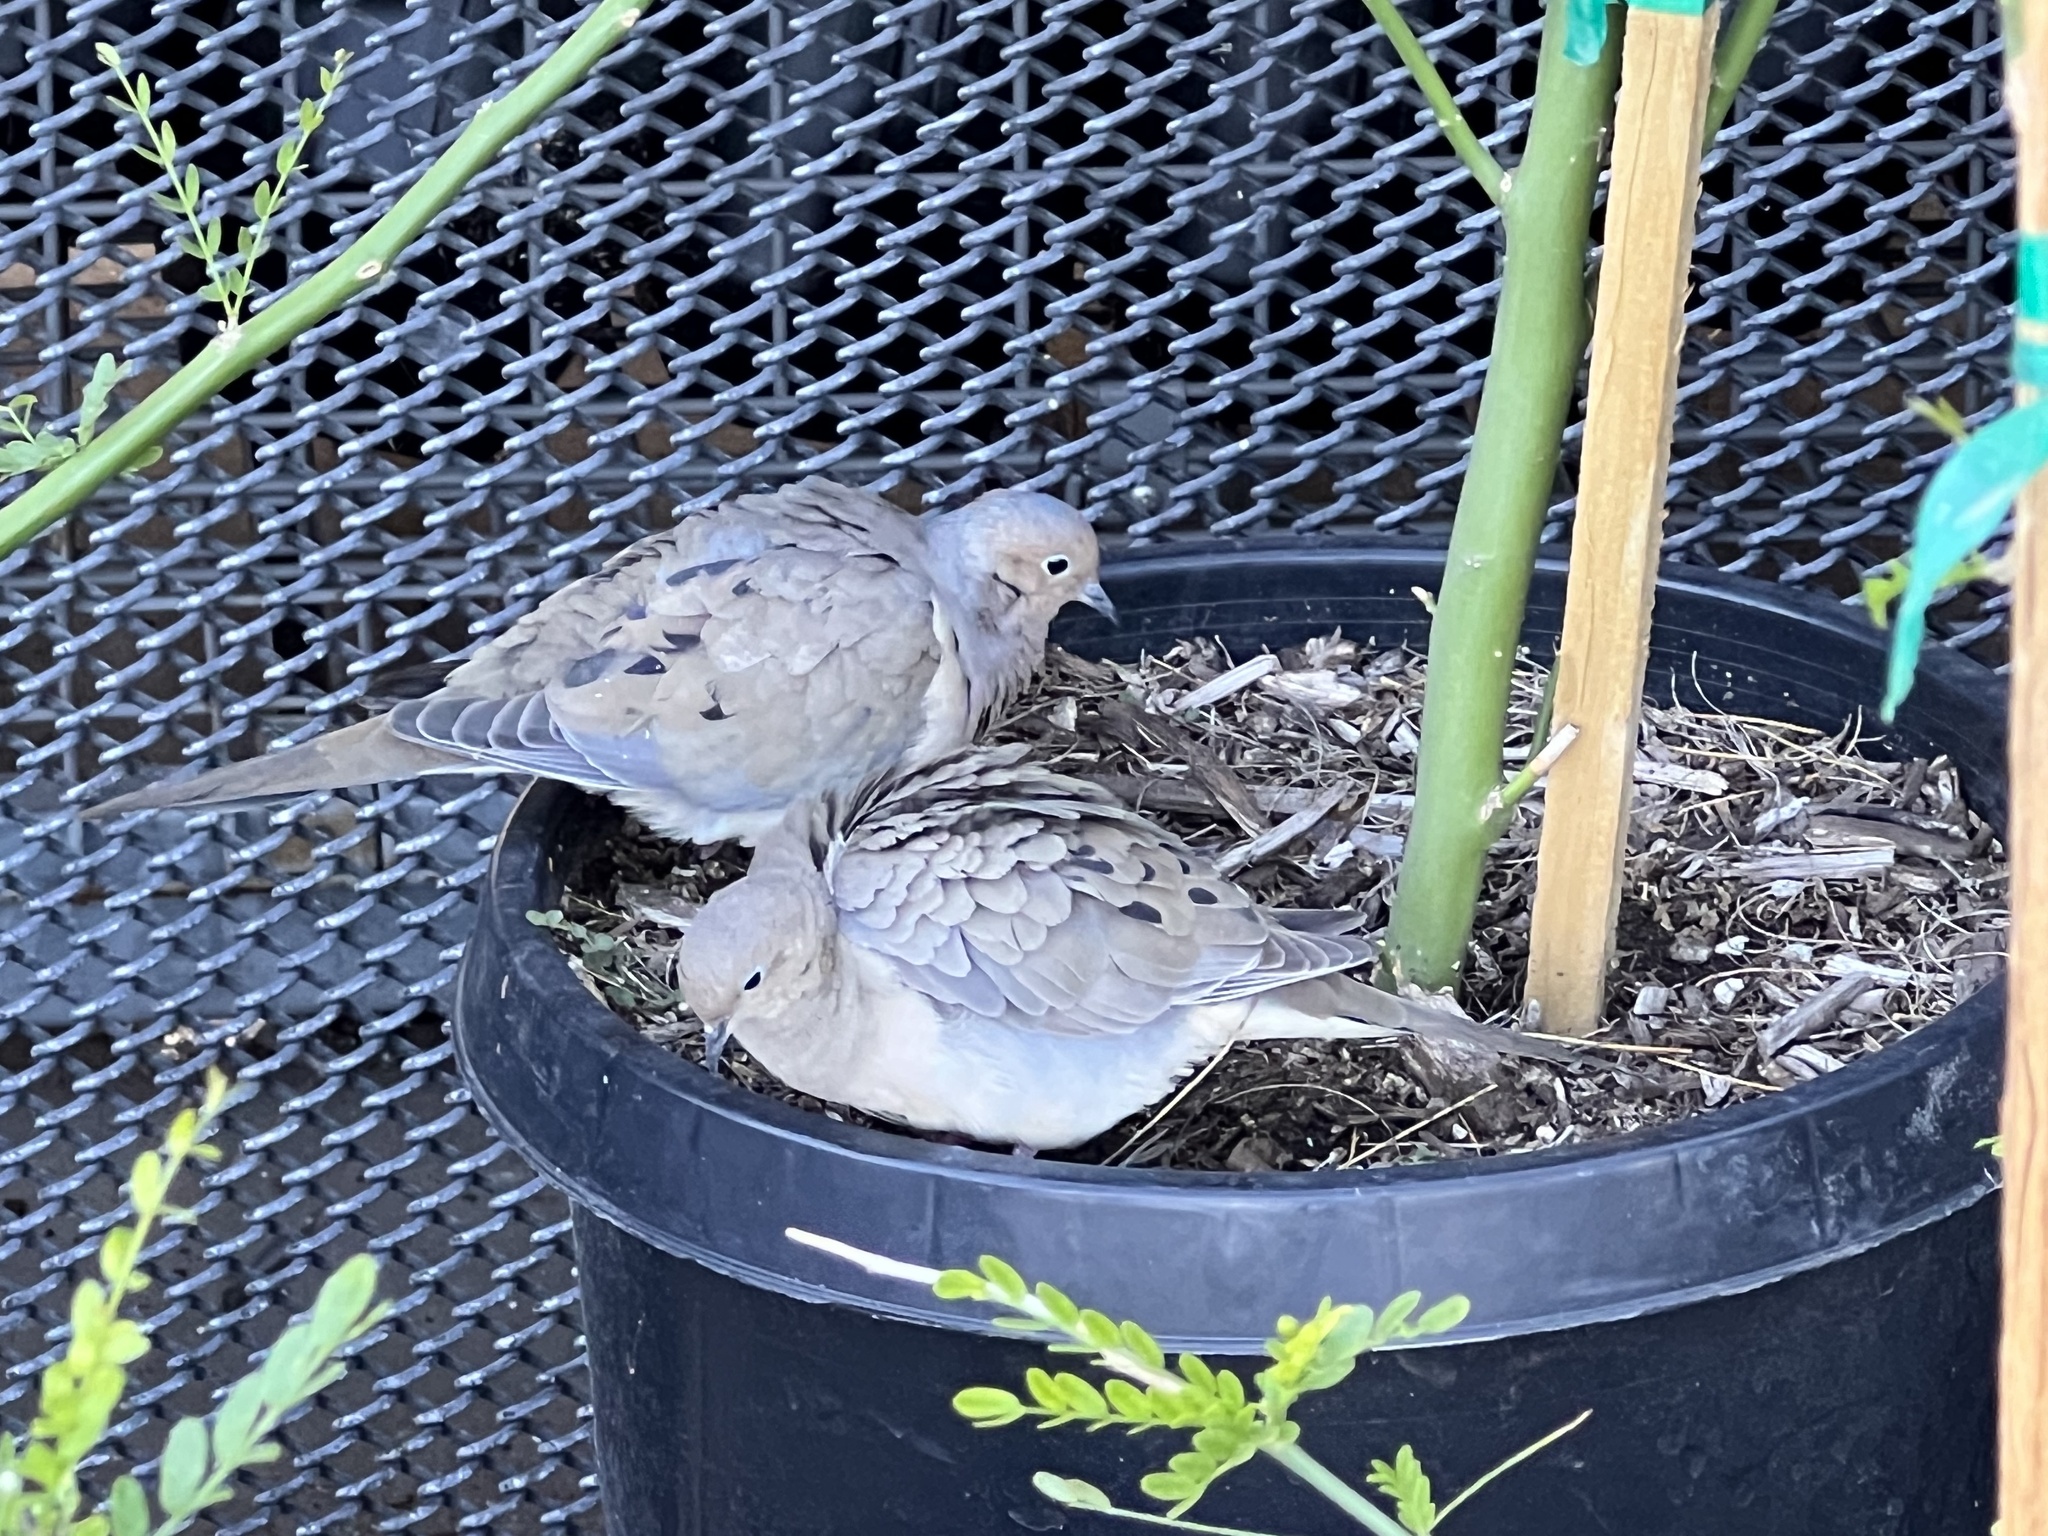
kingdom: Animalia
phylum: Chordata
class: Aves
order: Columbiformes
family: Columbidae
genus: Zenaida
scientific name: Zenaida macroura
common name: Mourning dove
